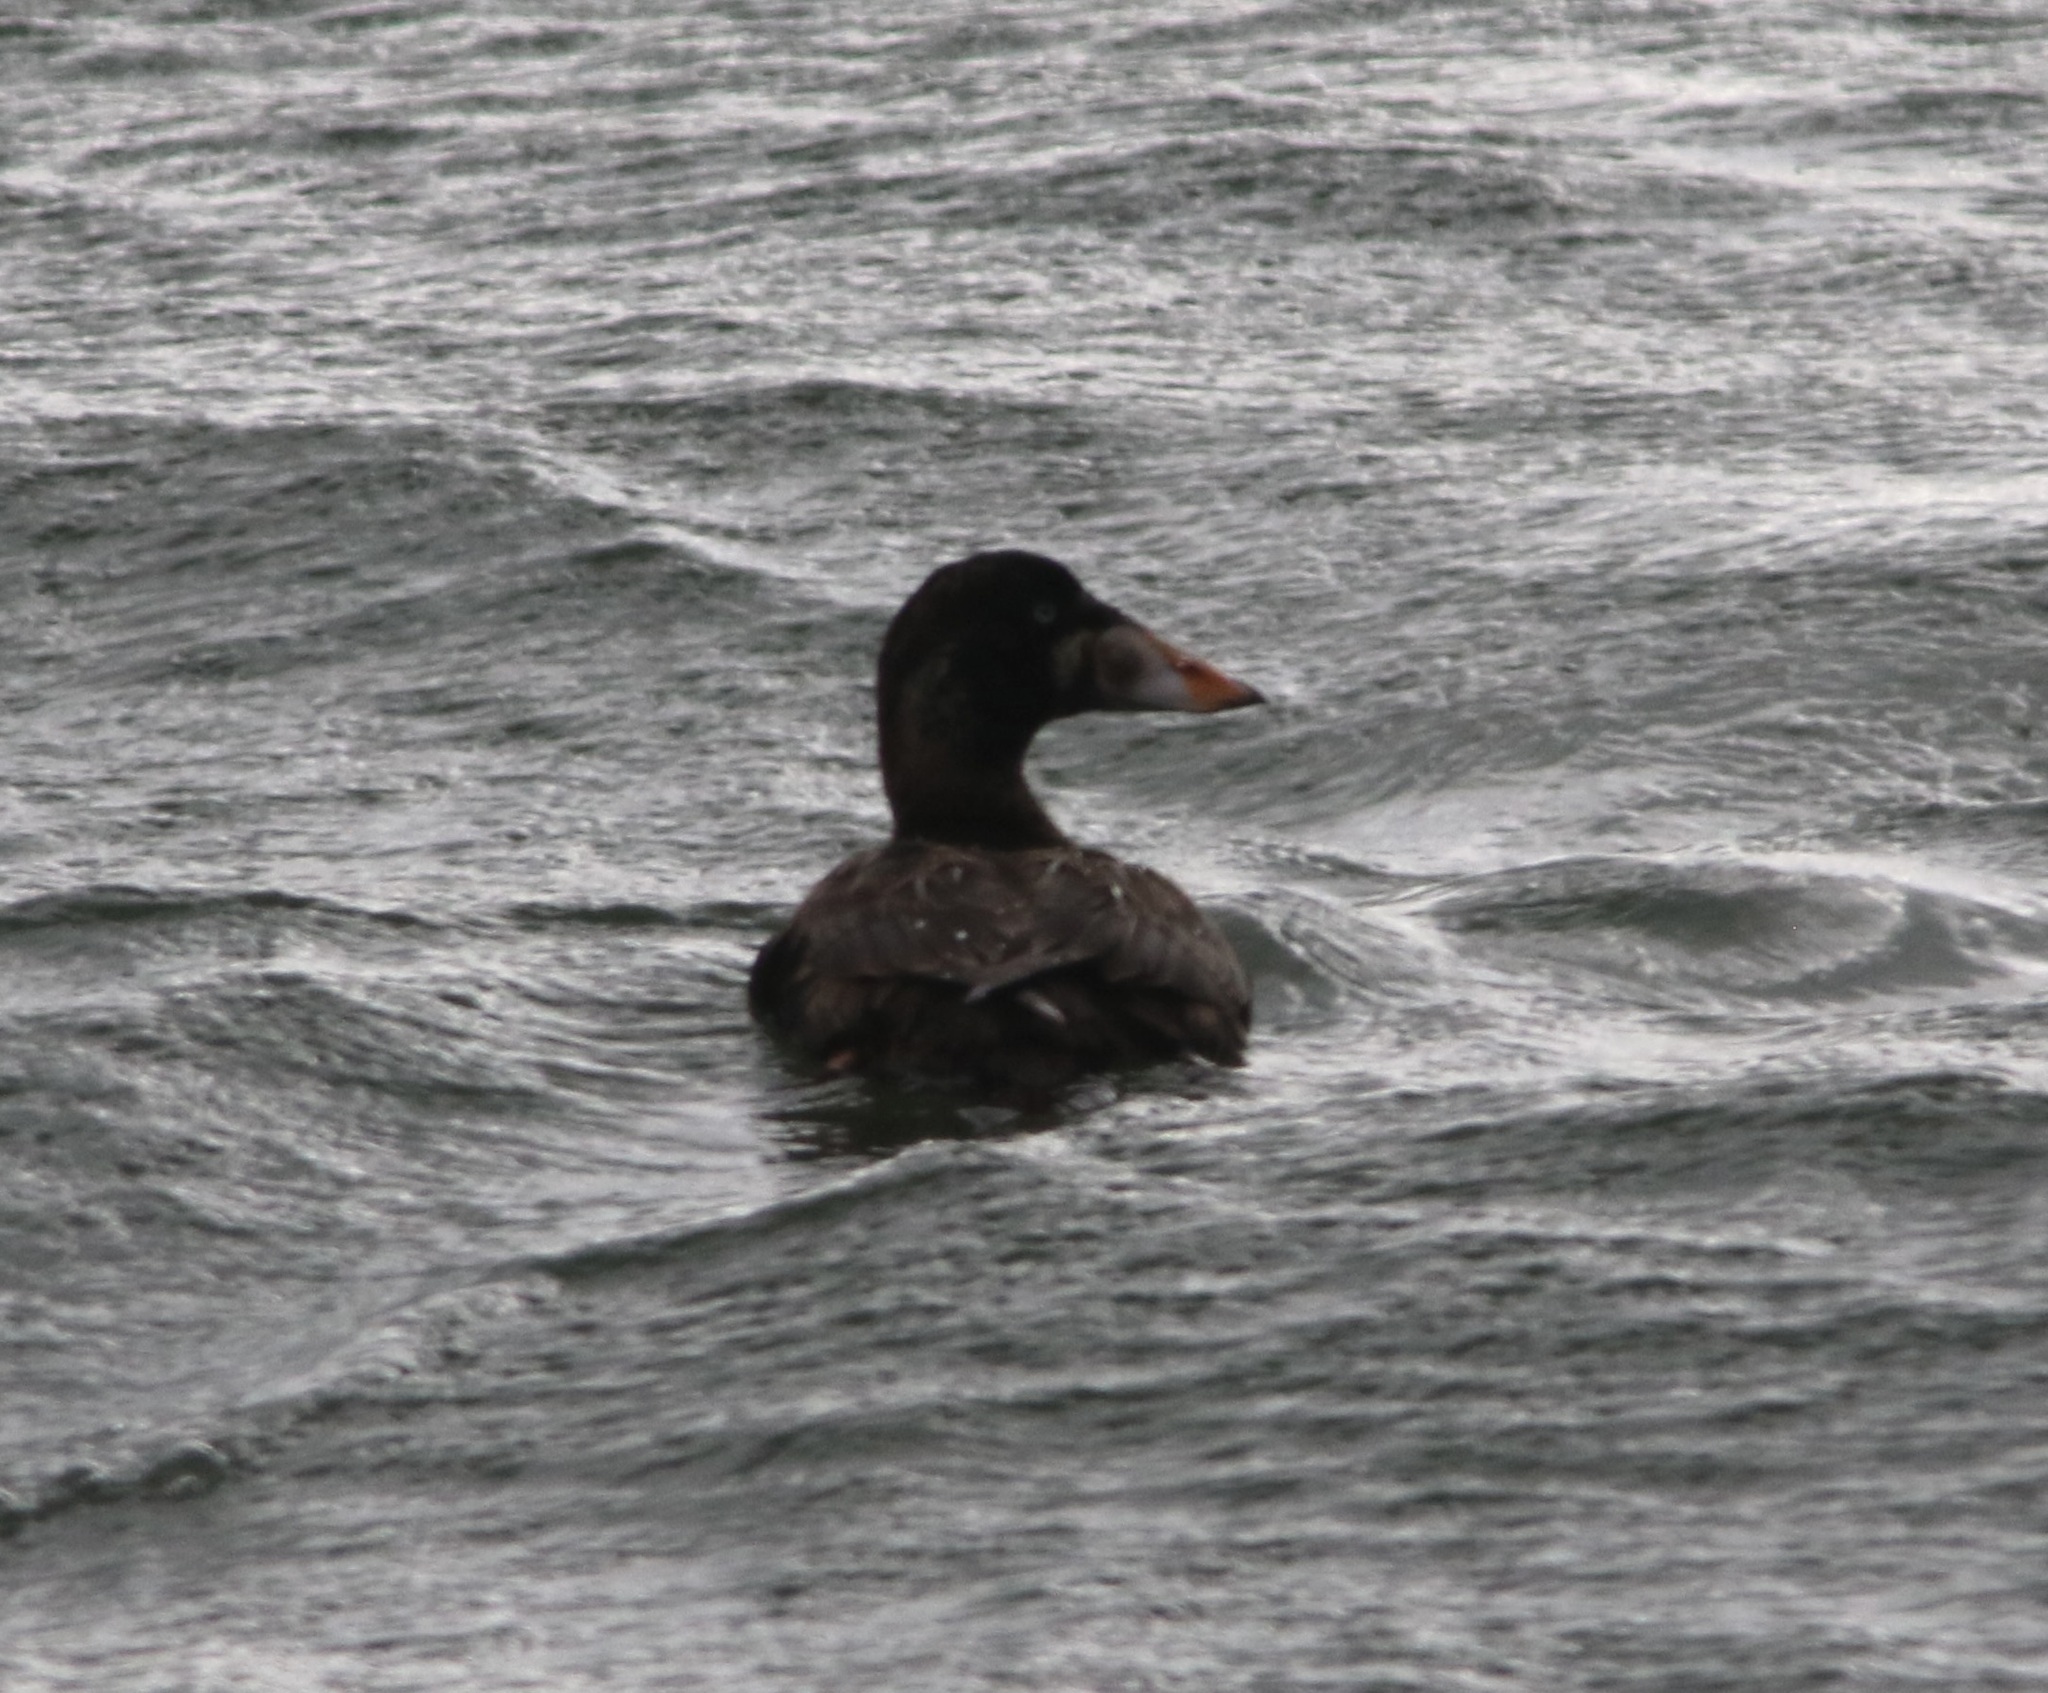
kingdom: Animalia
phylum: Chordata
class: Aves
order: Anseriformes
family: Anatidae
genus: Melanitta
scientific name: Melanitta perspicillata
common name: Surf scoter
